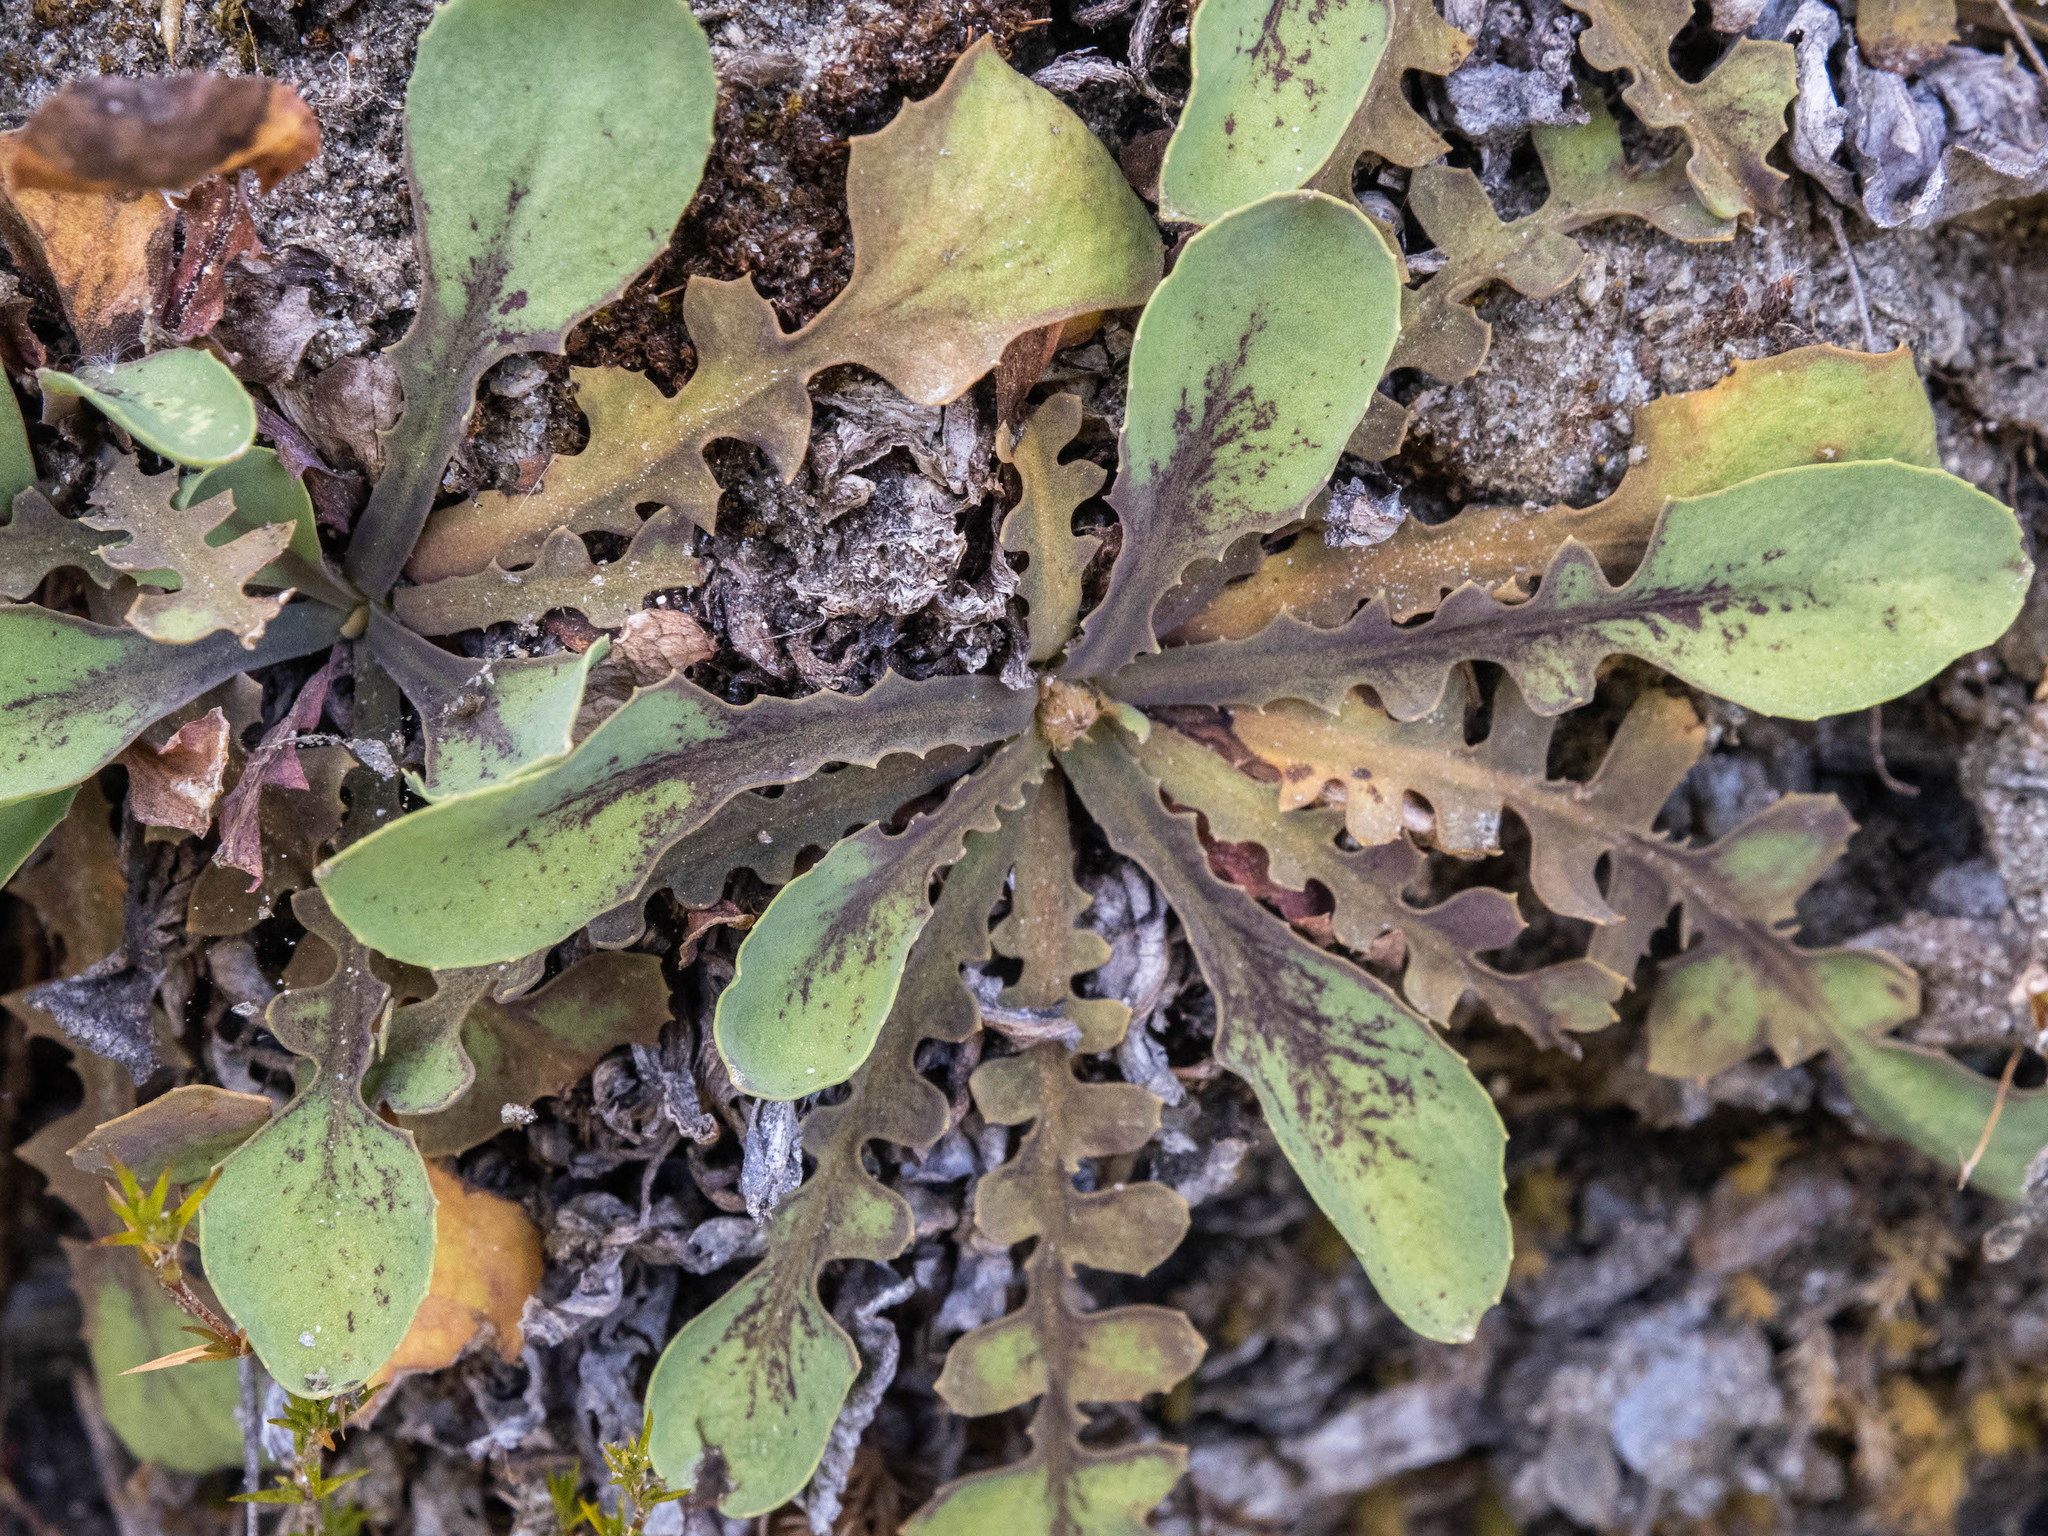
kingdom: Plantae
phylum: Tracheophyta
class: Magnoliopsida
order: Asterales
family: Asteraceae
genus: Sonchus
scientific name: Sonchus novae-zelandiae
